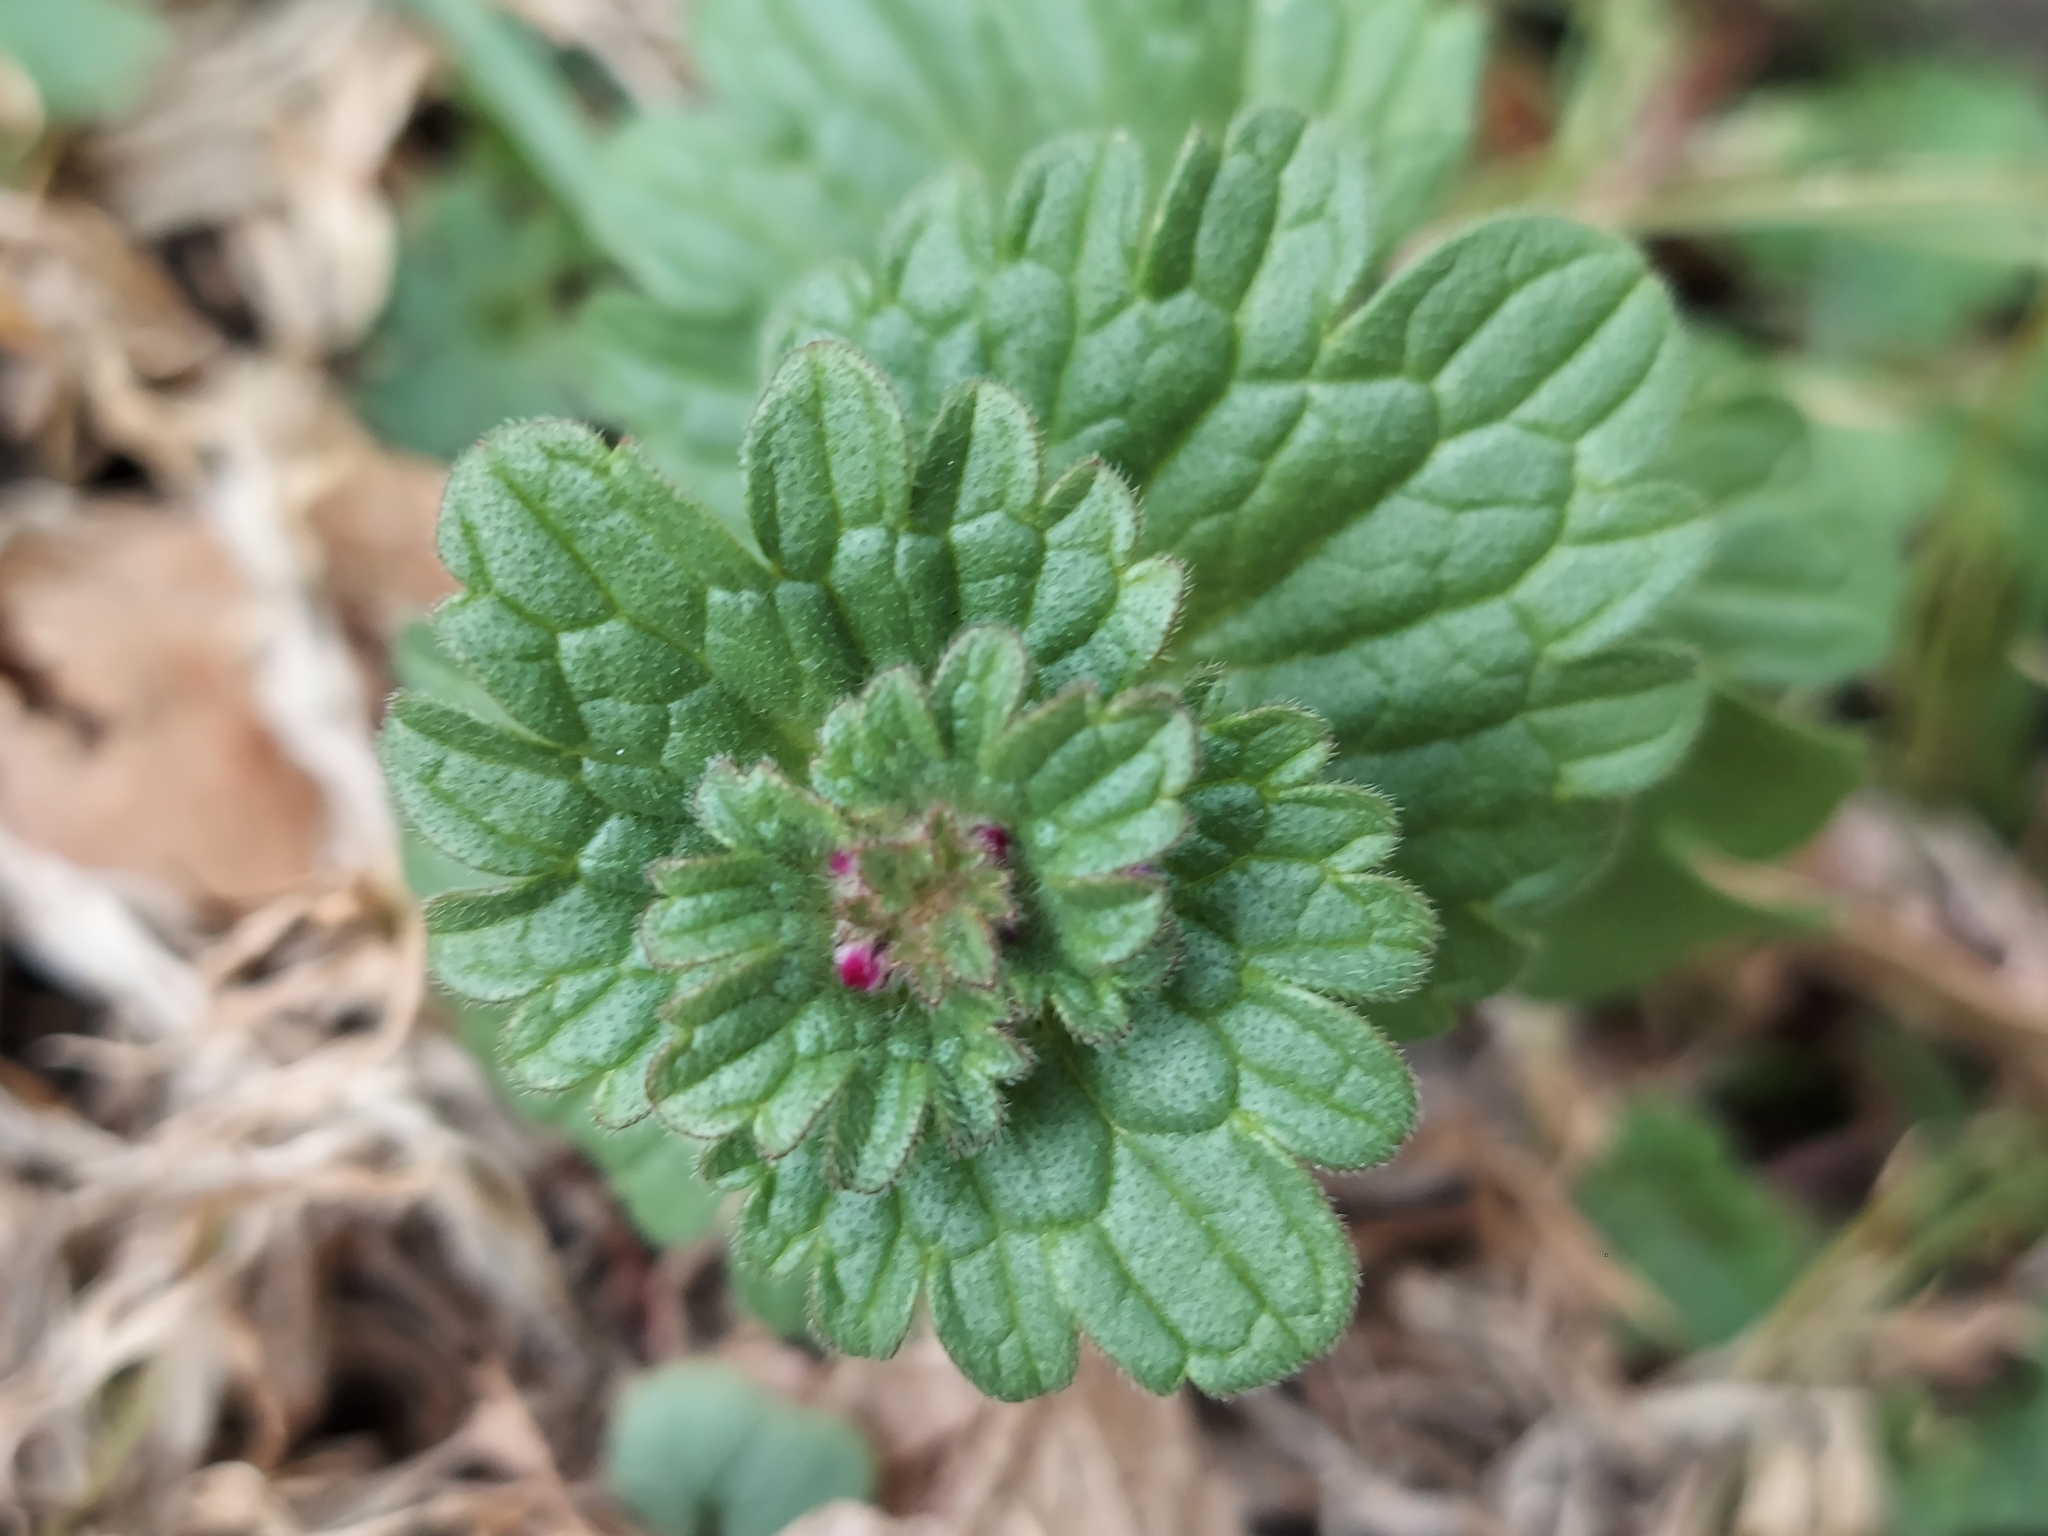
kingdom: Plantae
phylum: Tracheophyta
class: Magnoliopsida
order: Lamiales
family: Lamiaceae
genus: Lamium
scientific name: Lamium amplexicaule
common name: Henbit dead-nettle
